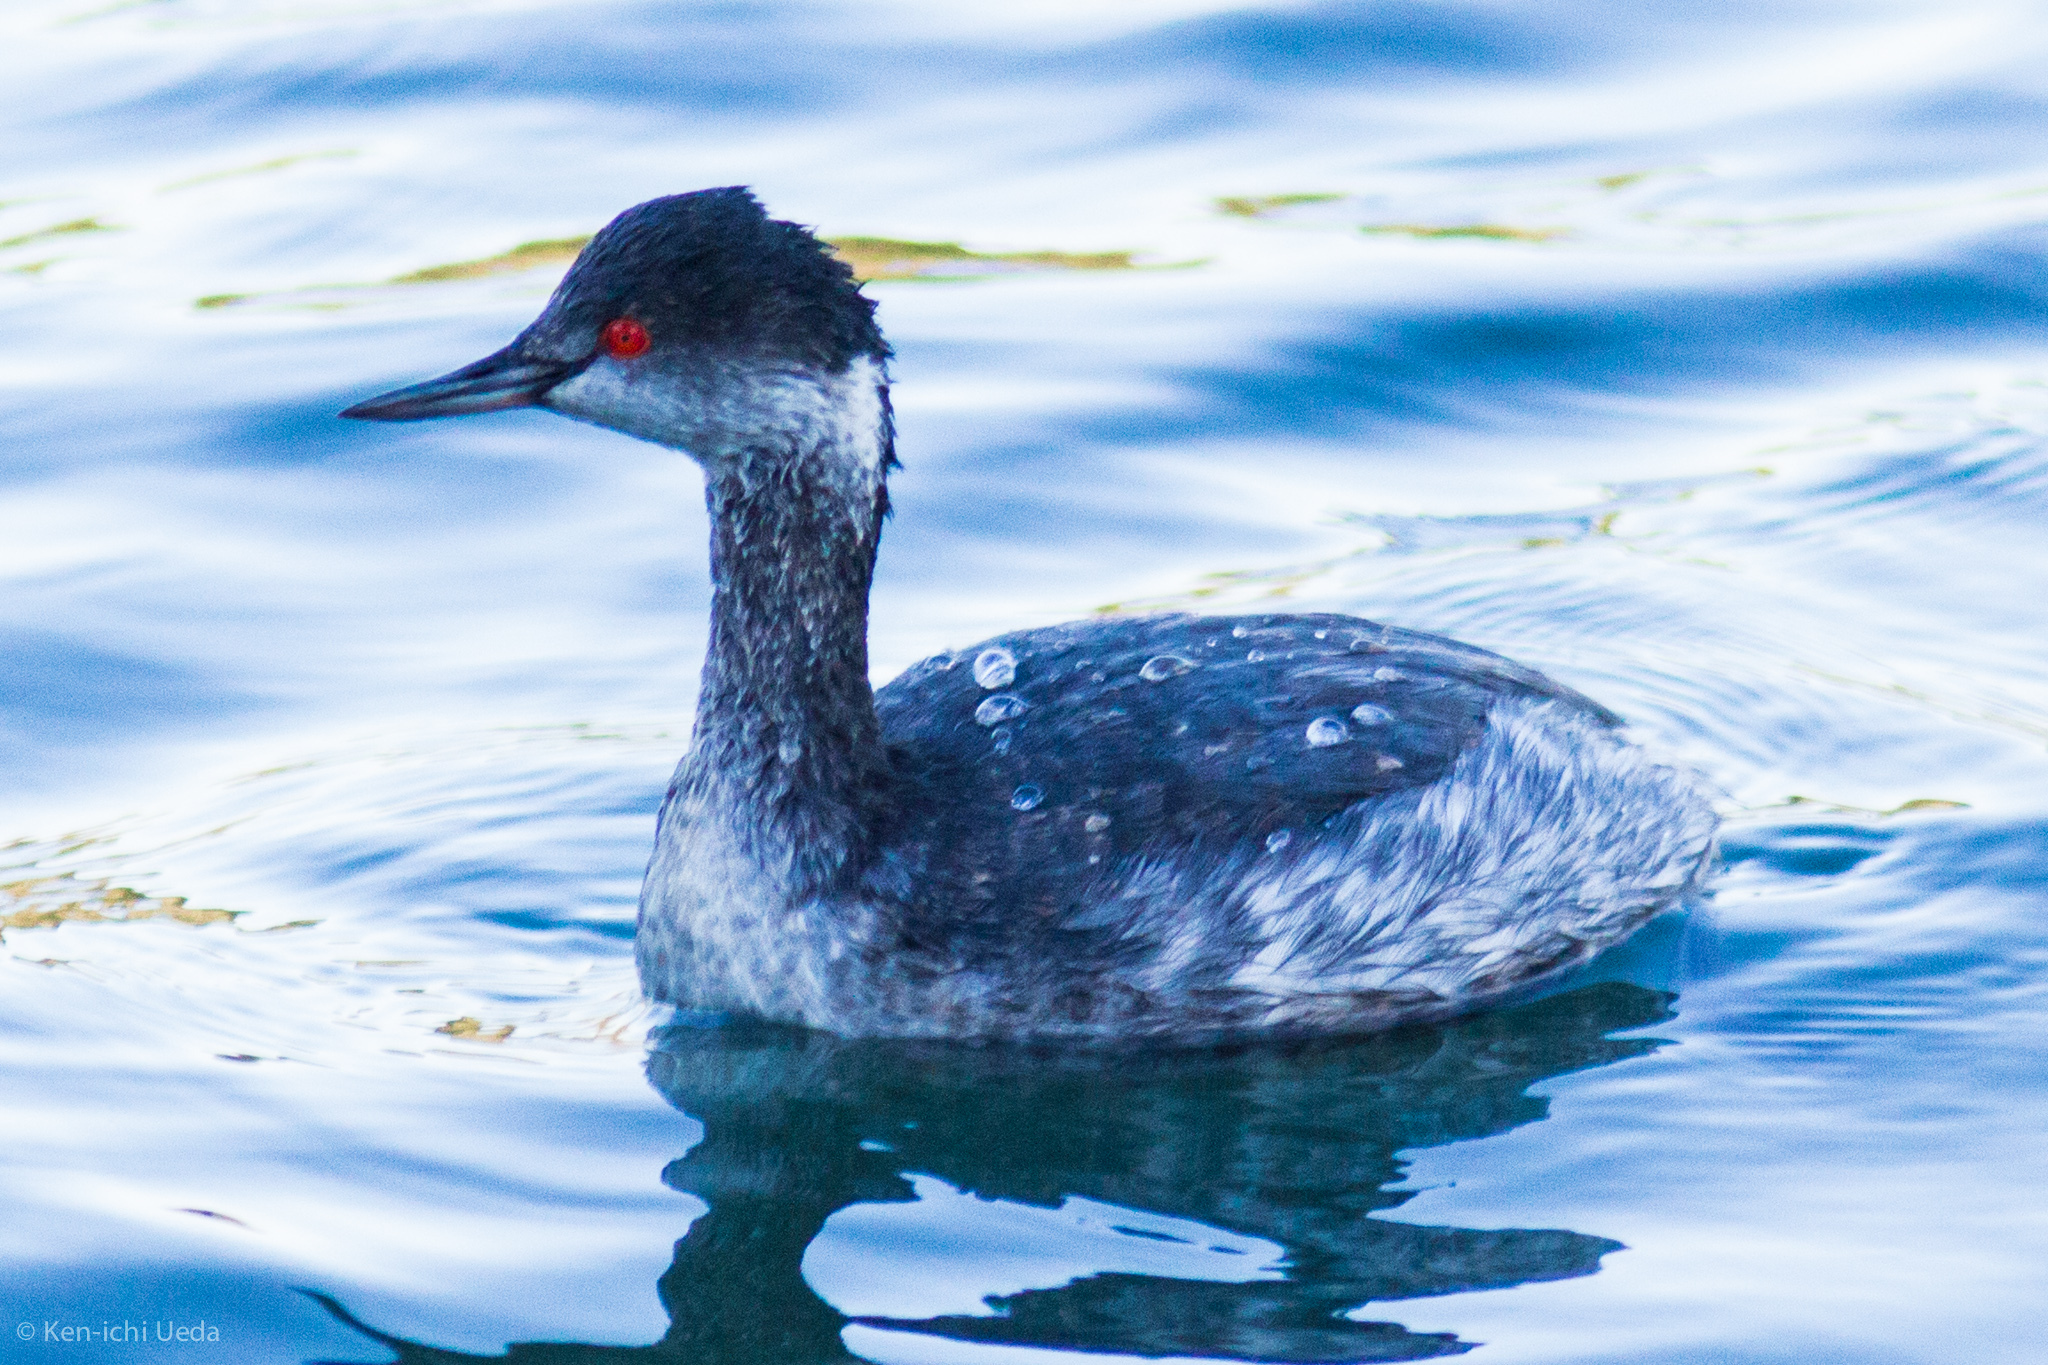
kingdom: Animalia
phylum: Chordata
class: Aves
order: Podicipediformes
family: Podicipedidae
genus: Podiceps
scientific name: Podiceps nigricollis
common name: Black-necked grebe
